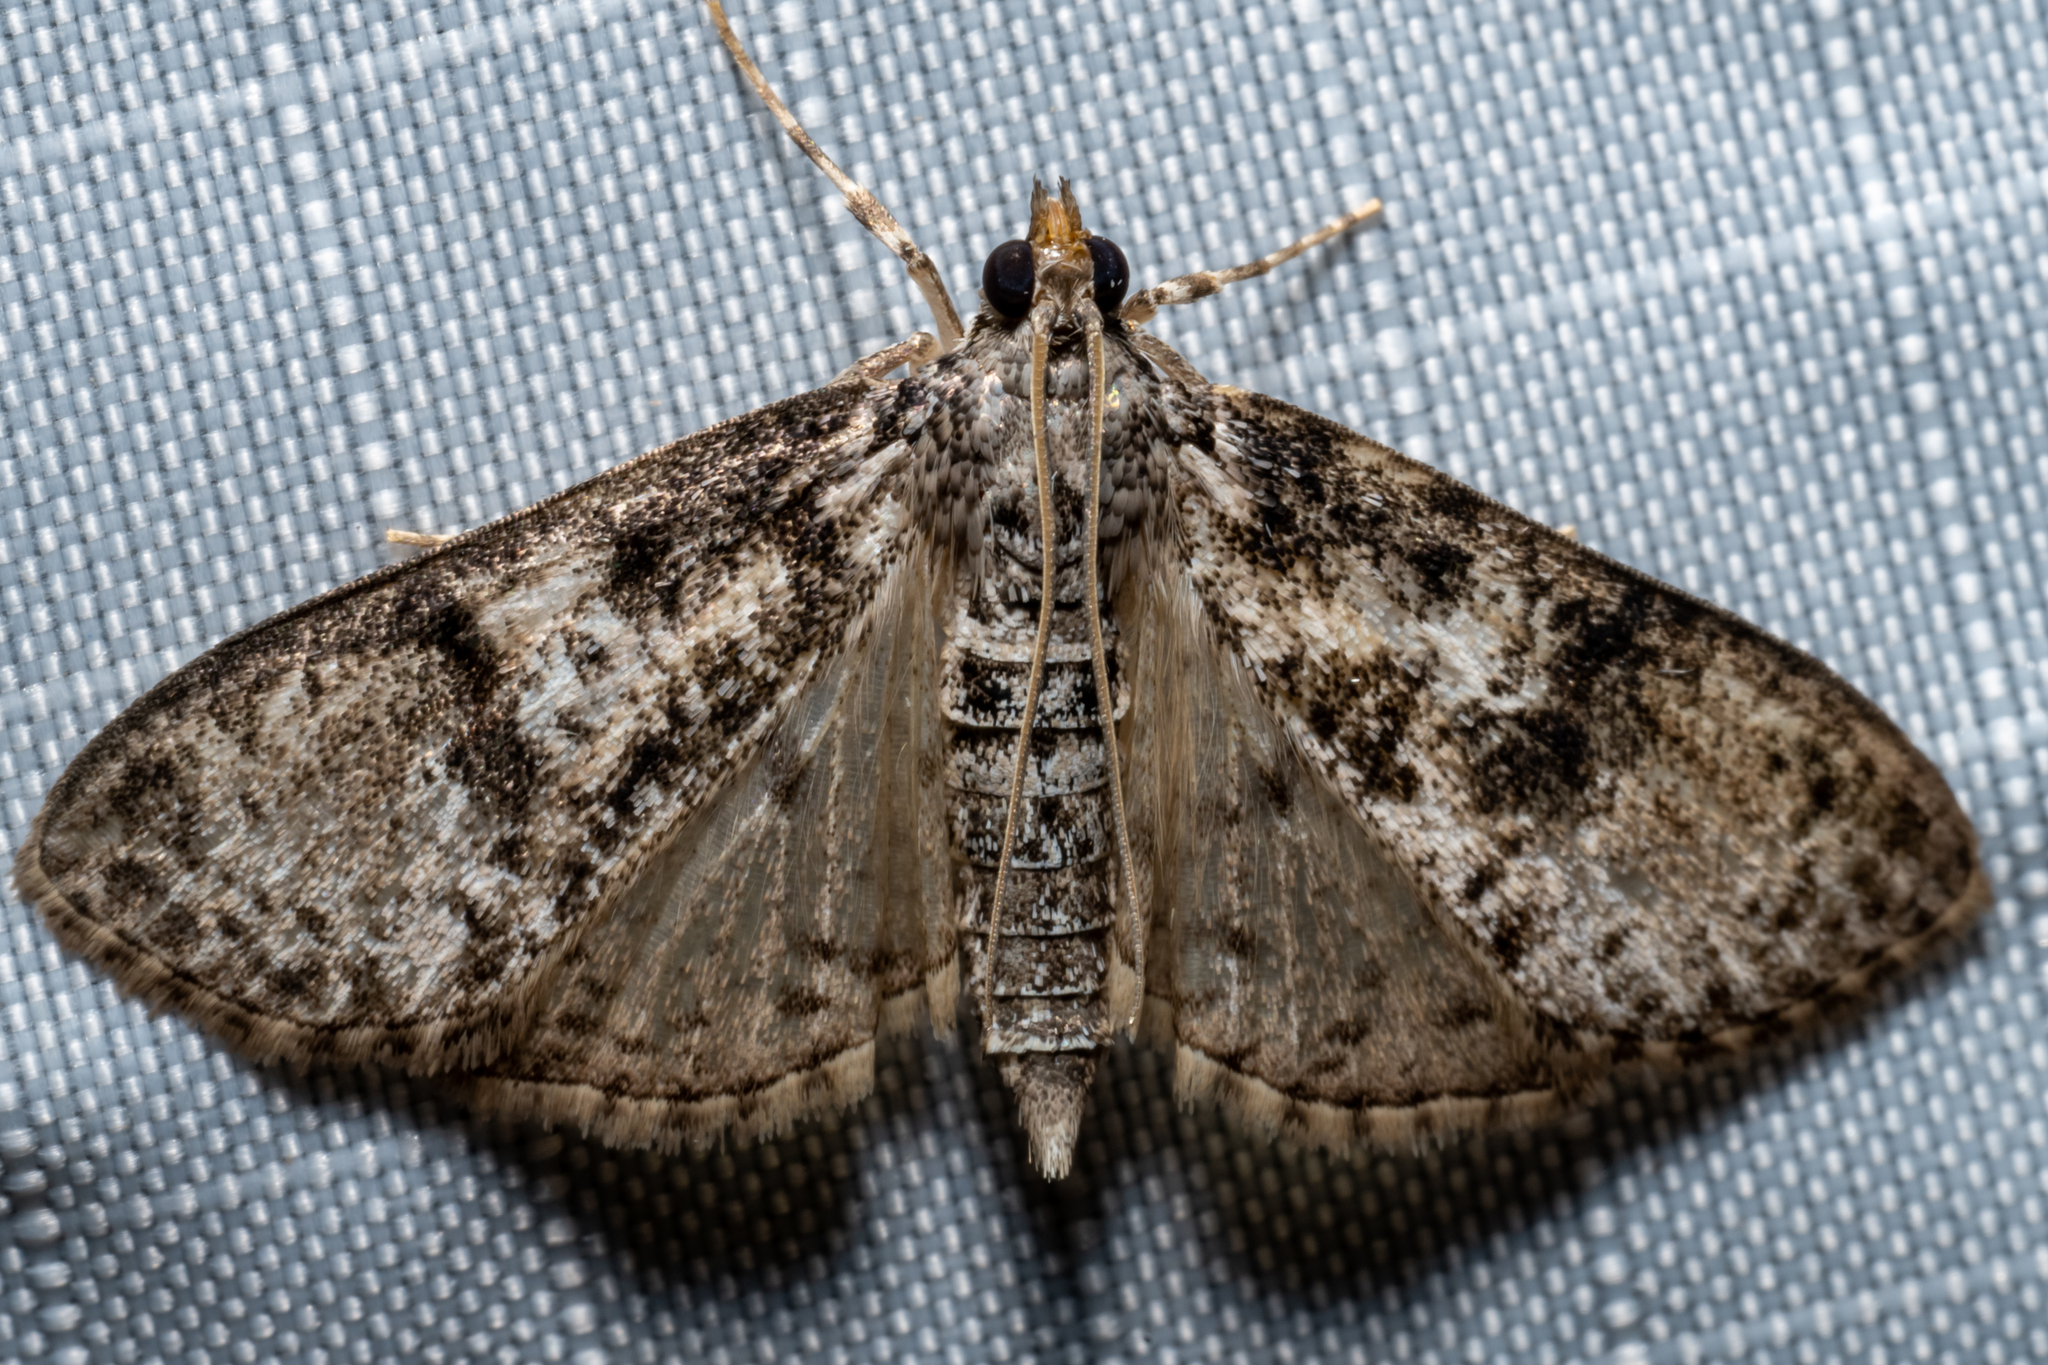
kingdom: Animalia
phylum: Arthropoda
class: Insecta
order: Lepidoptera
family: Crambidae
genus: Palpita
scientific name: Palpita magniferalis
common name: Splendid palpita moth
